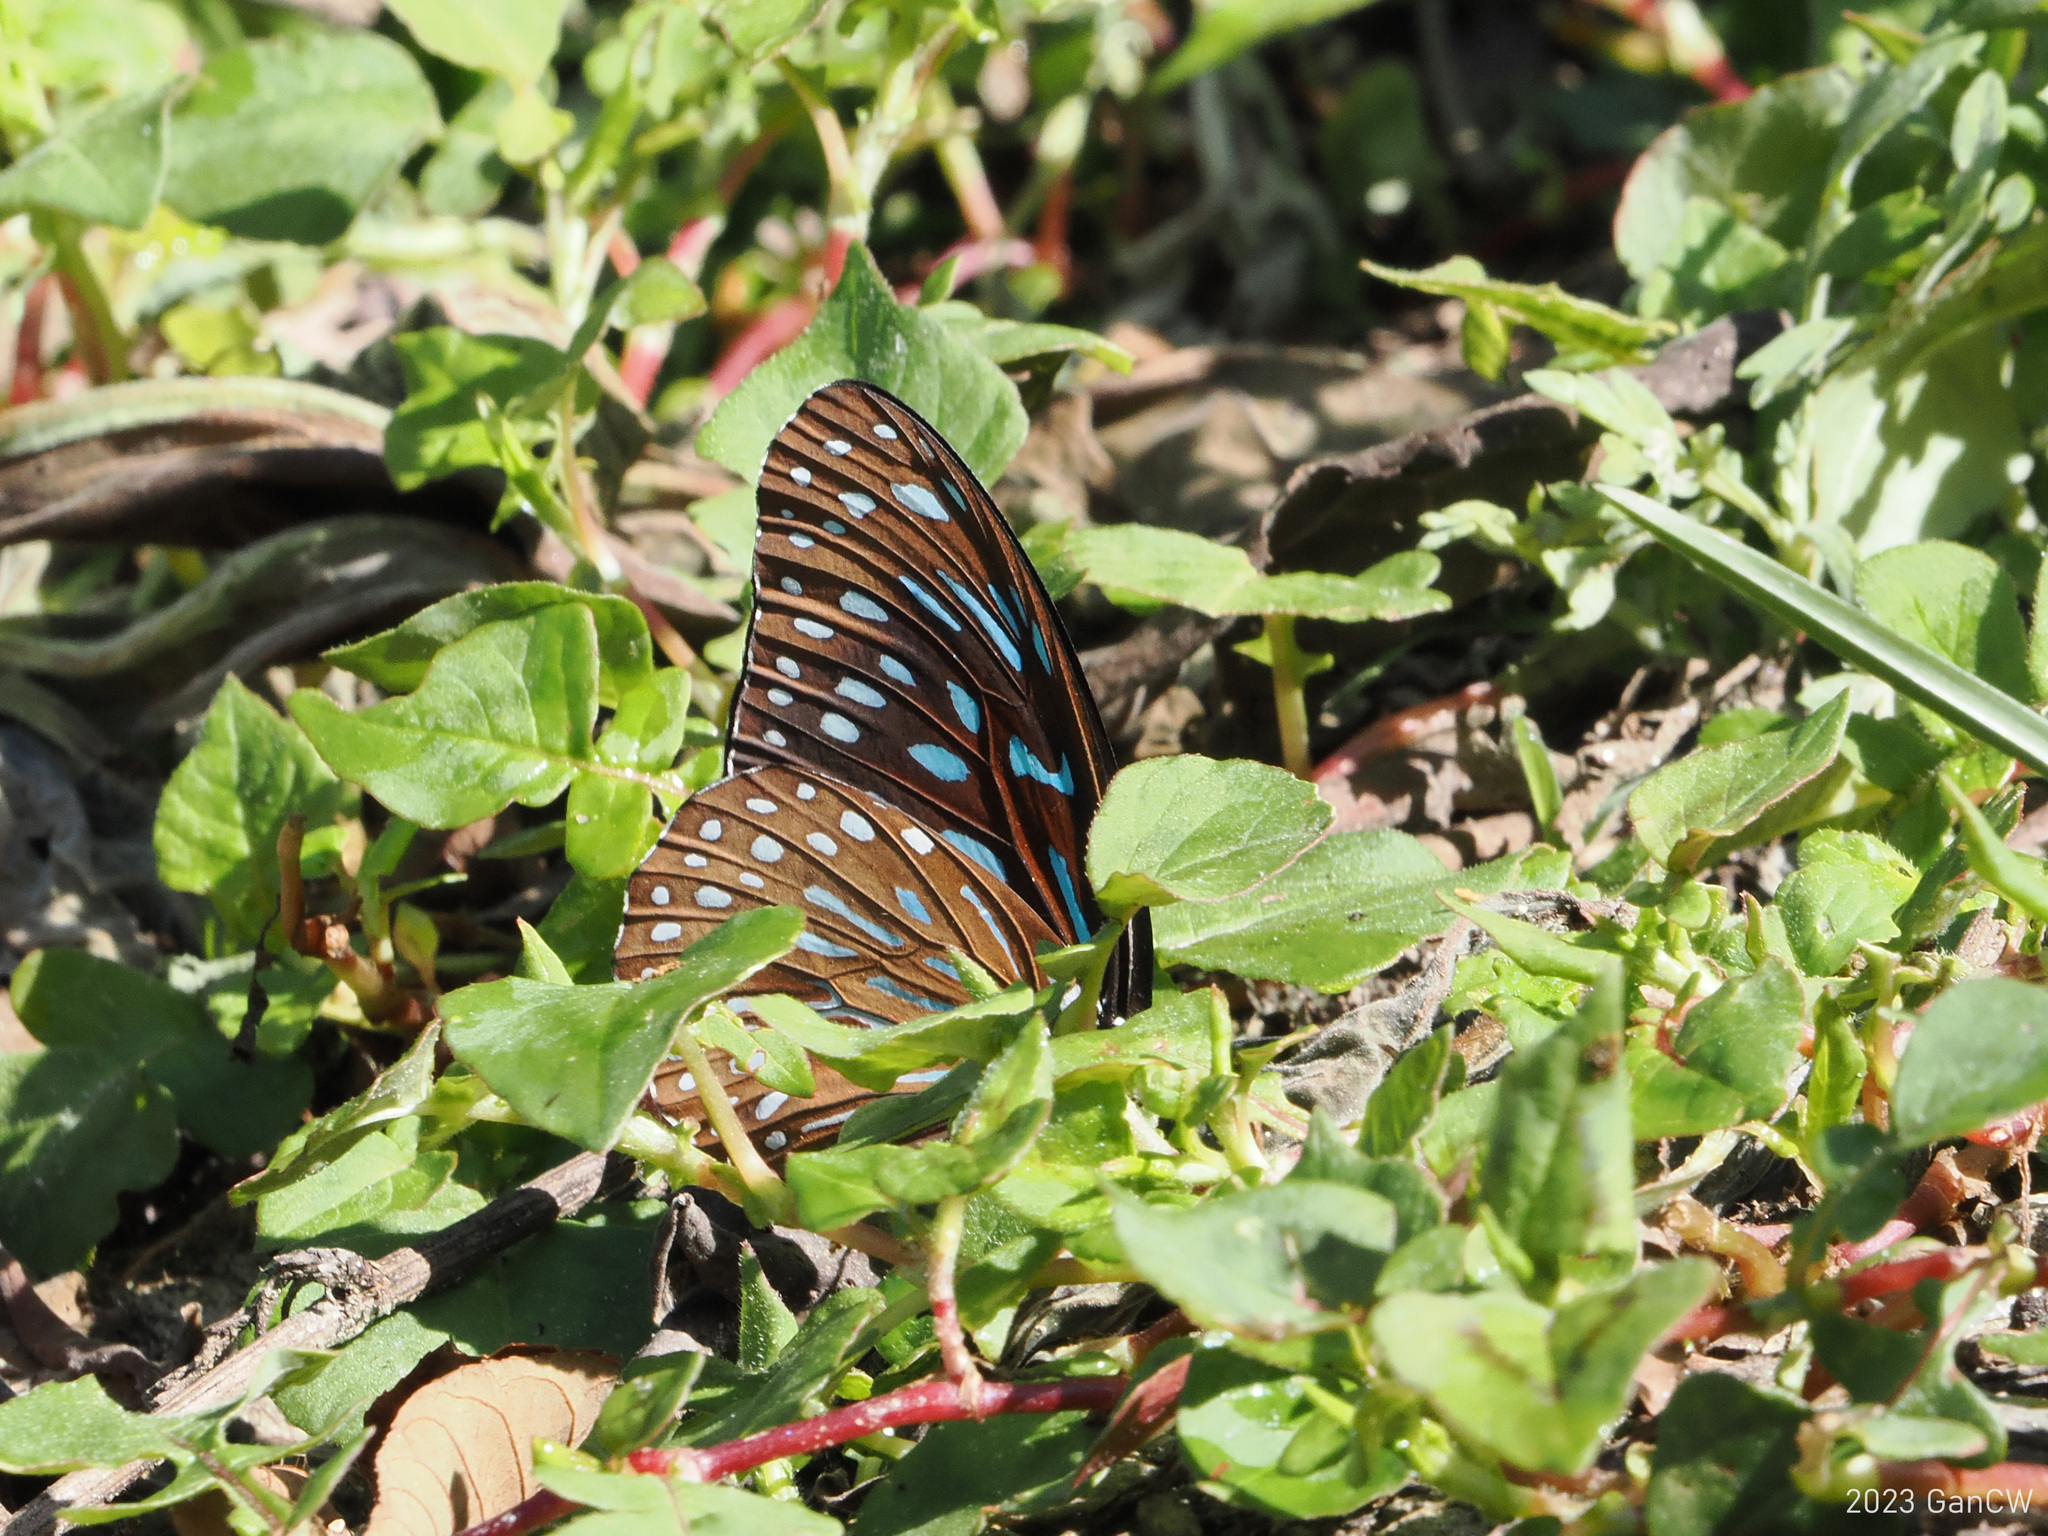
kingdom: Animalia
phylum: Arthropoda
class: Insecta
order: Lepidoptera
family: Nymphalidae
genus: Tirumala
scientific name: Tirumala septentrionis
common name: Dark blue tiger butterfly
